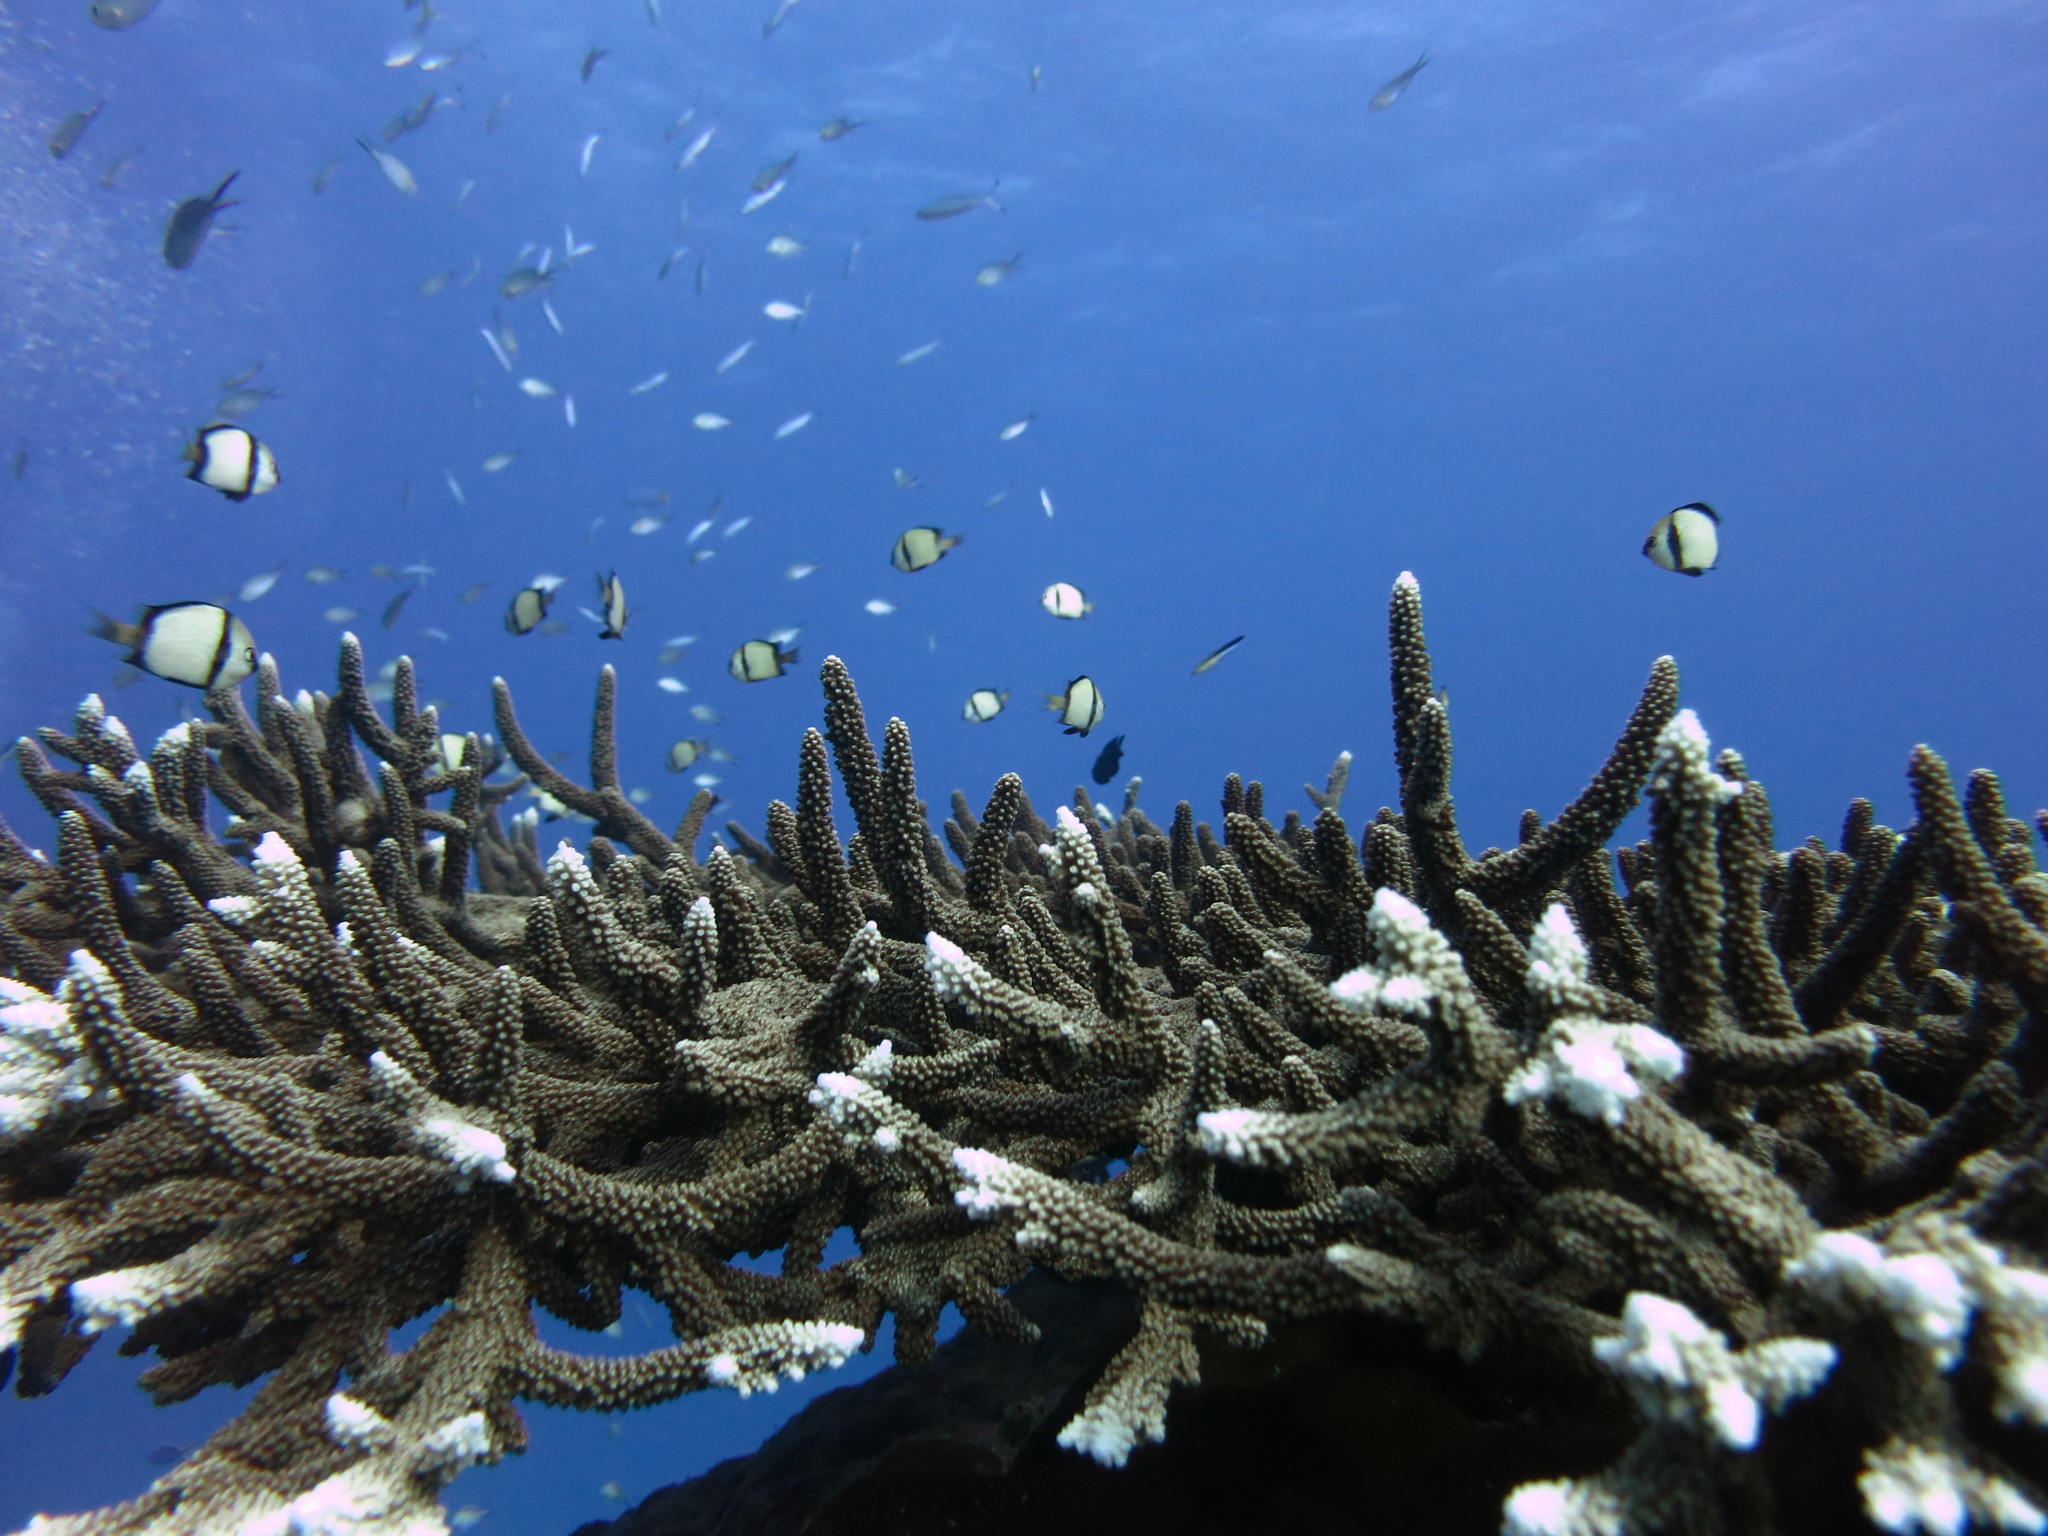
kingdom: Animalia
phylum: Chordata
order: Perciformes
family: Pomacentridae
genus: Dascyllus
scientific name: Dascyllus reticulatus
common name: Reticulated dascyllus
